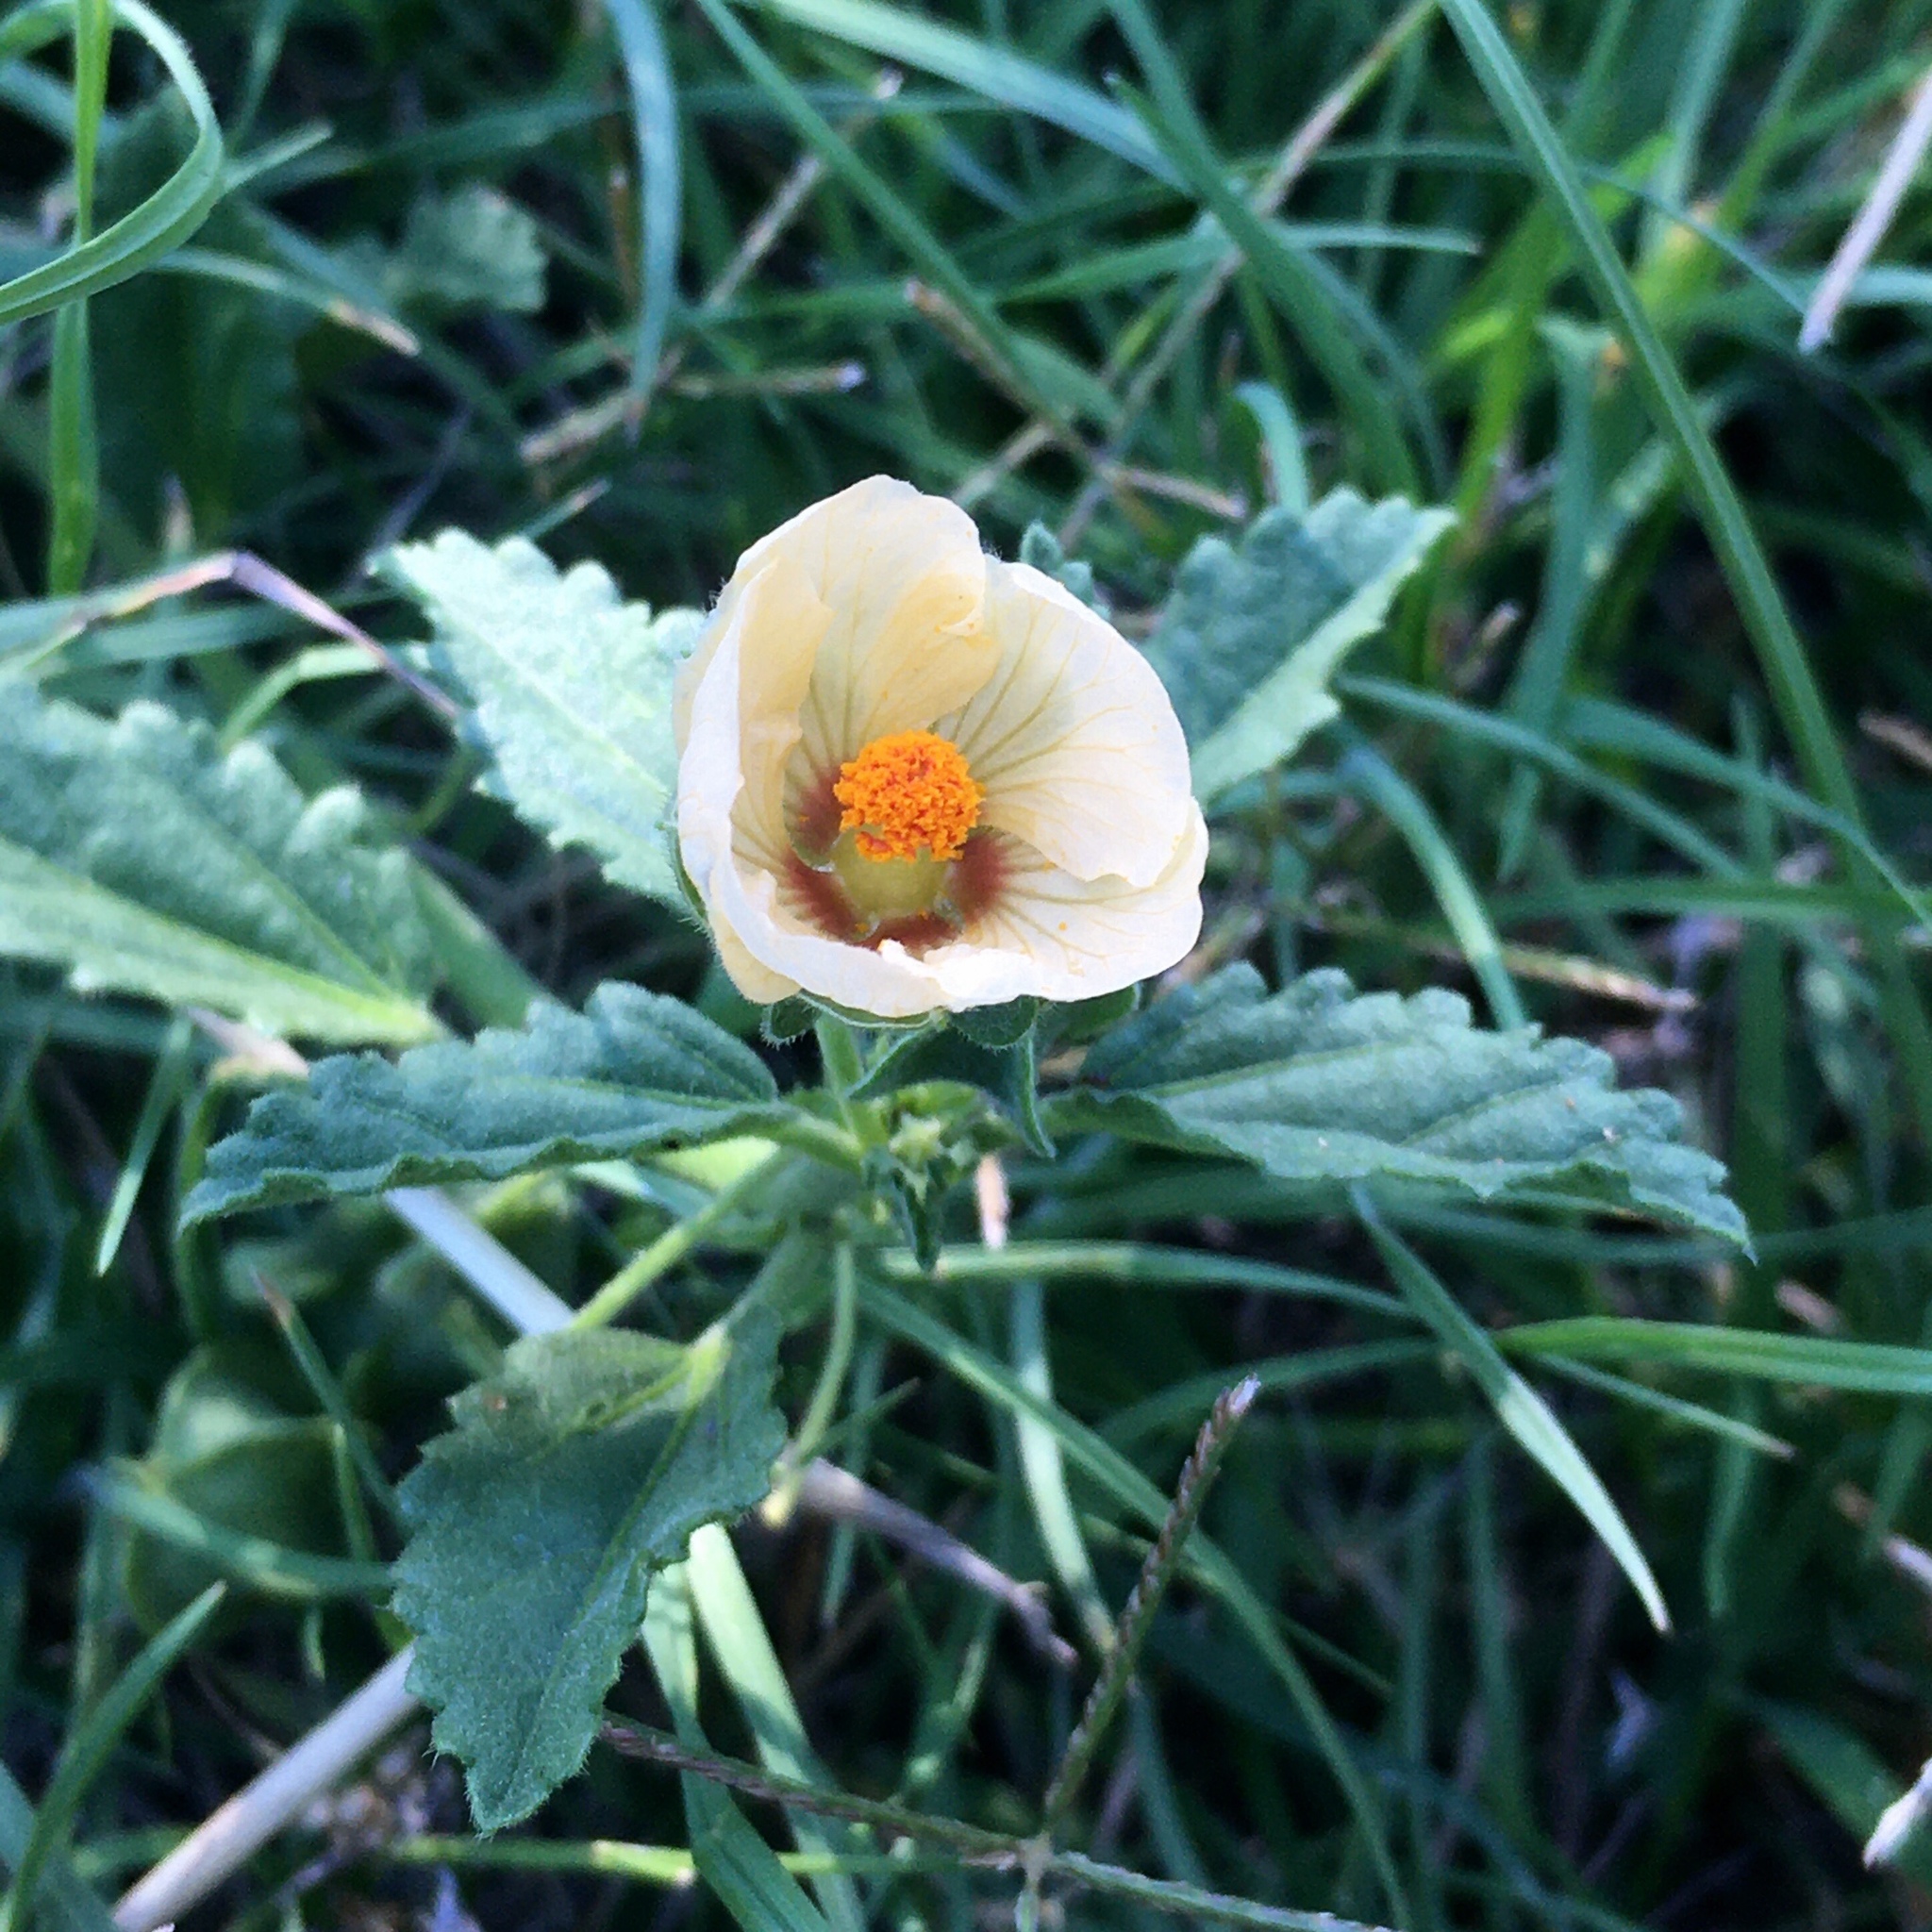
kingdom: Plantae
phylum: Tracheophyta
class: Magnoliopsida
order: Malvales
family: Malvaceae
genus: Rhynchosida
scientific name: Rhynchosida physocalyx
